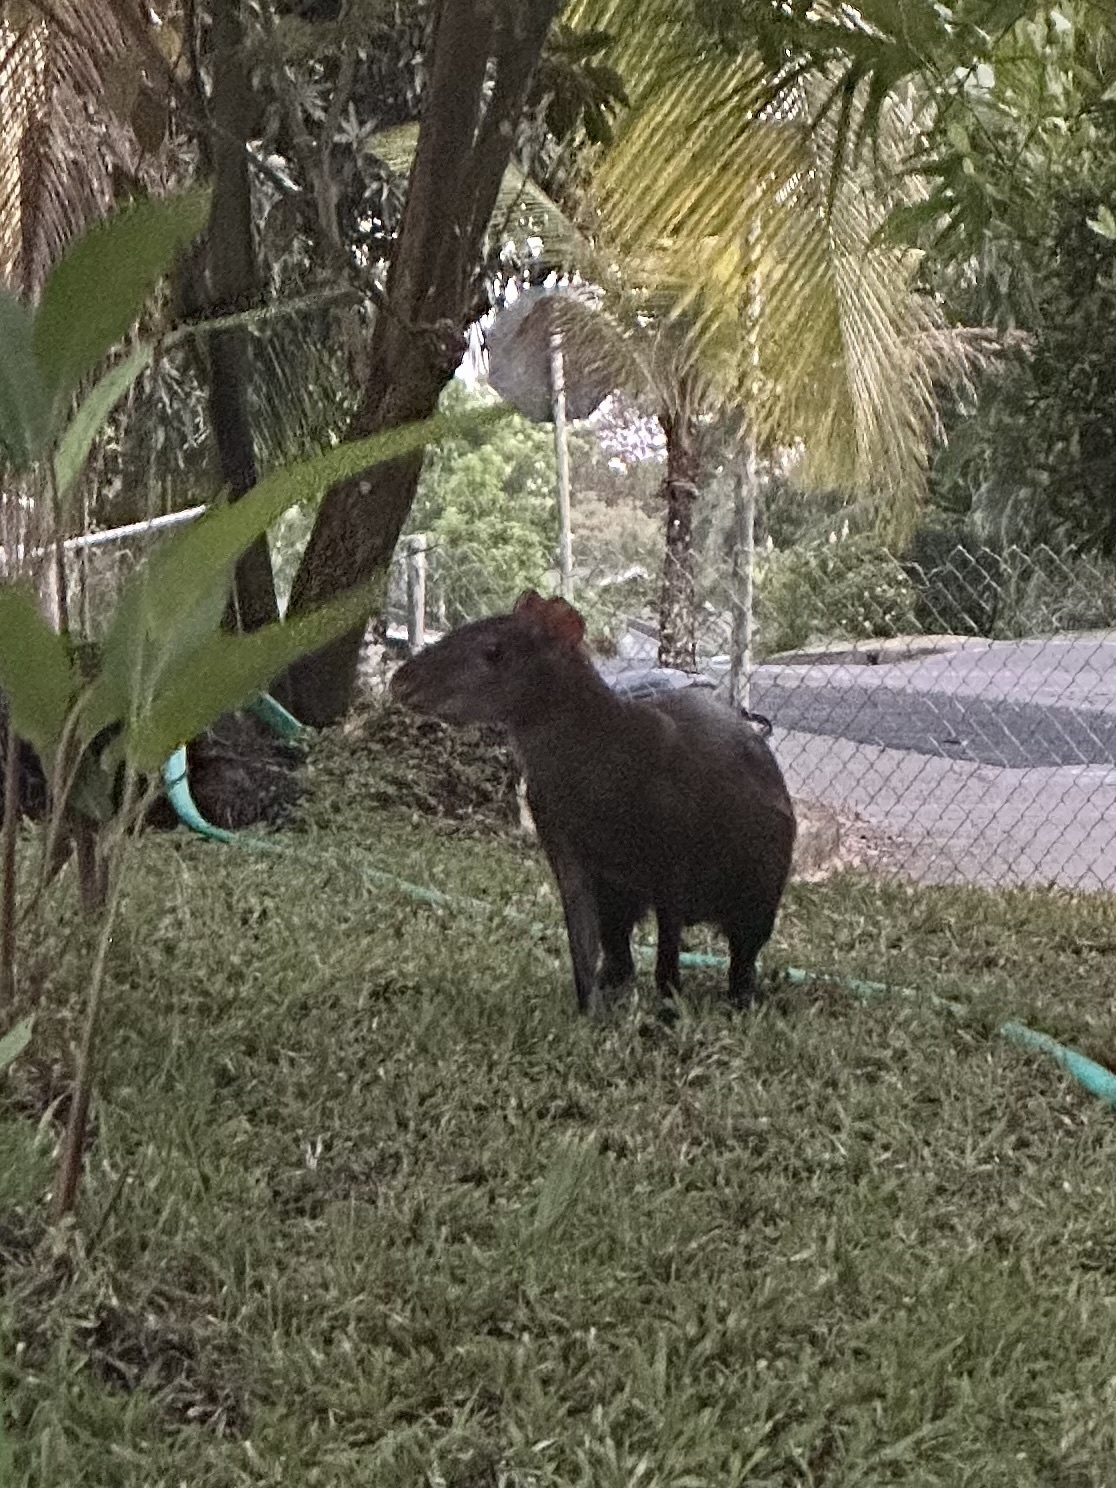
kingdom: Animalia
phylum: Chordata
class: Mammalia
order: Rodentia
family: Dasyproctidae
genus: Dasyprocta
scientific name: Dasyprocta punctata
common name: Central american agouti
